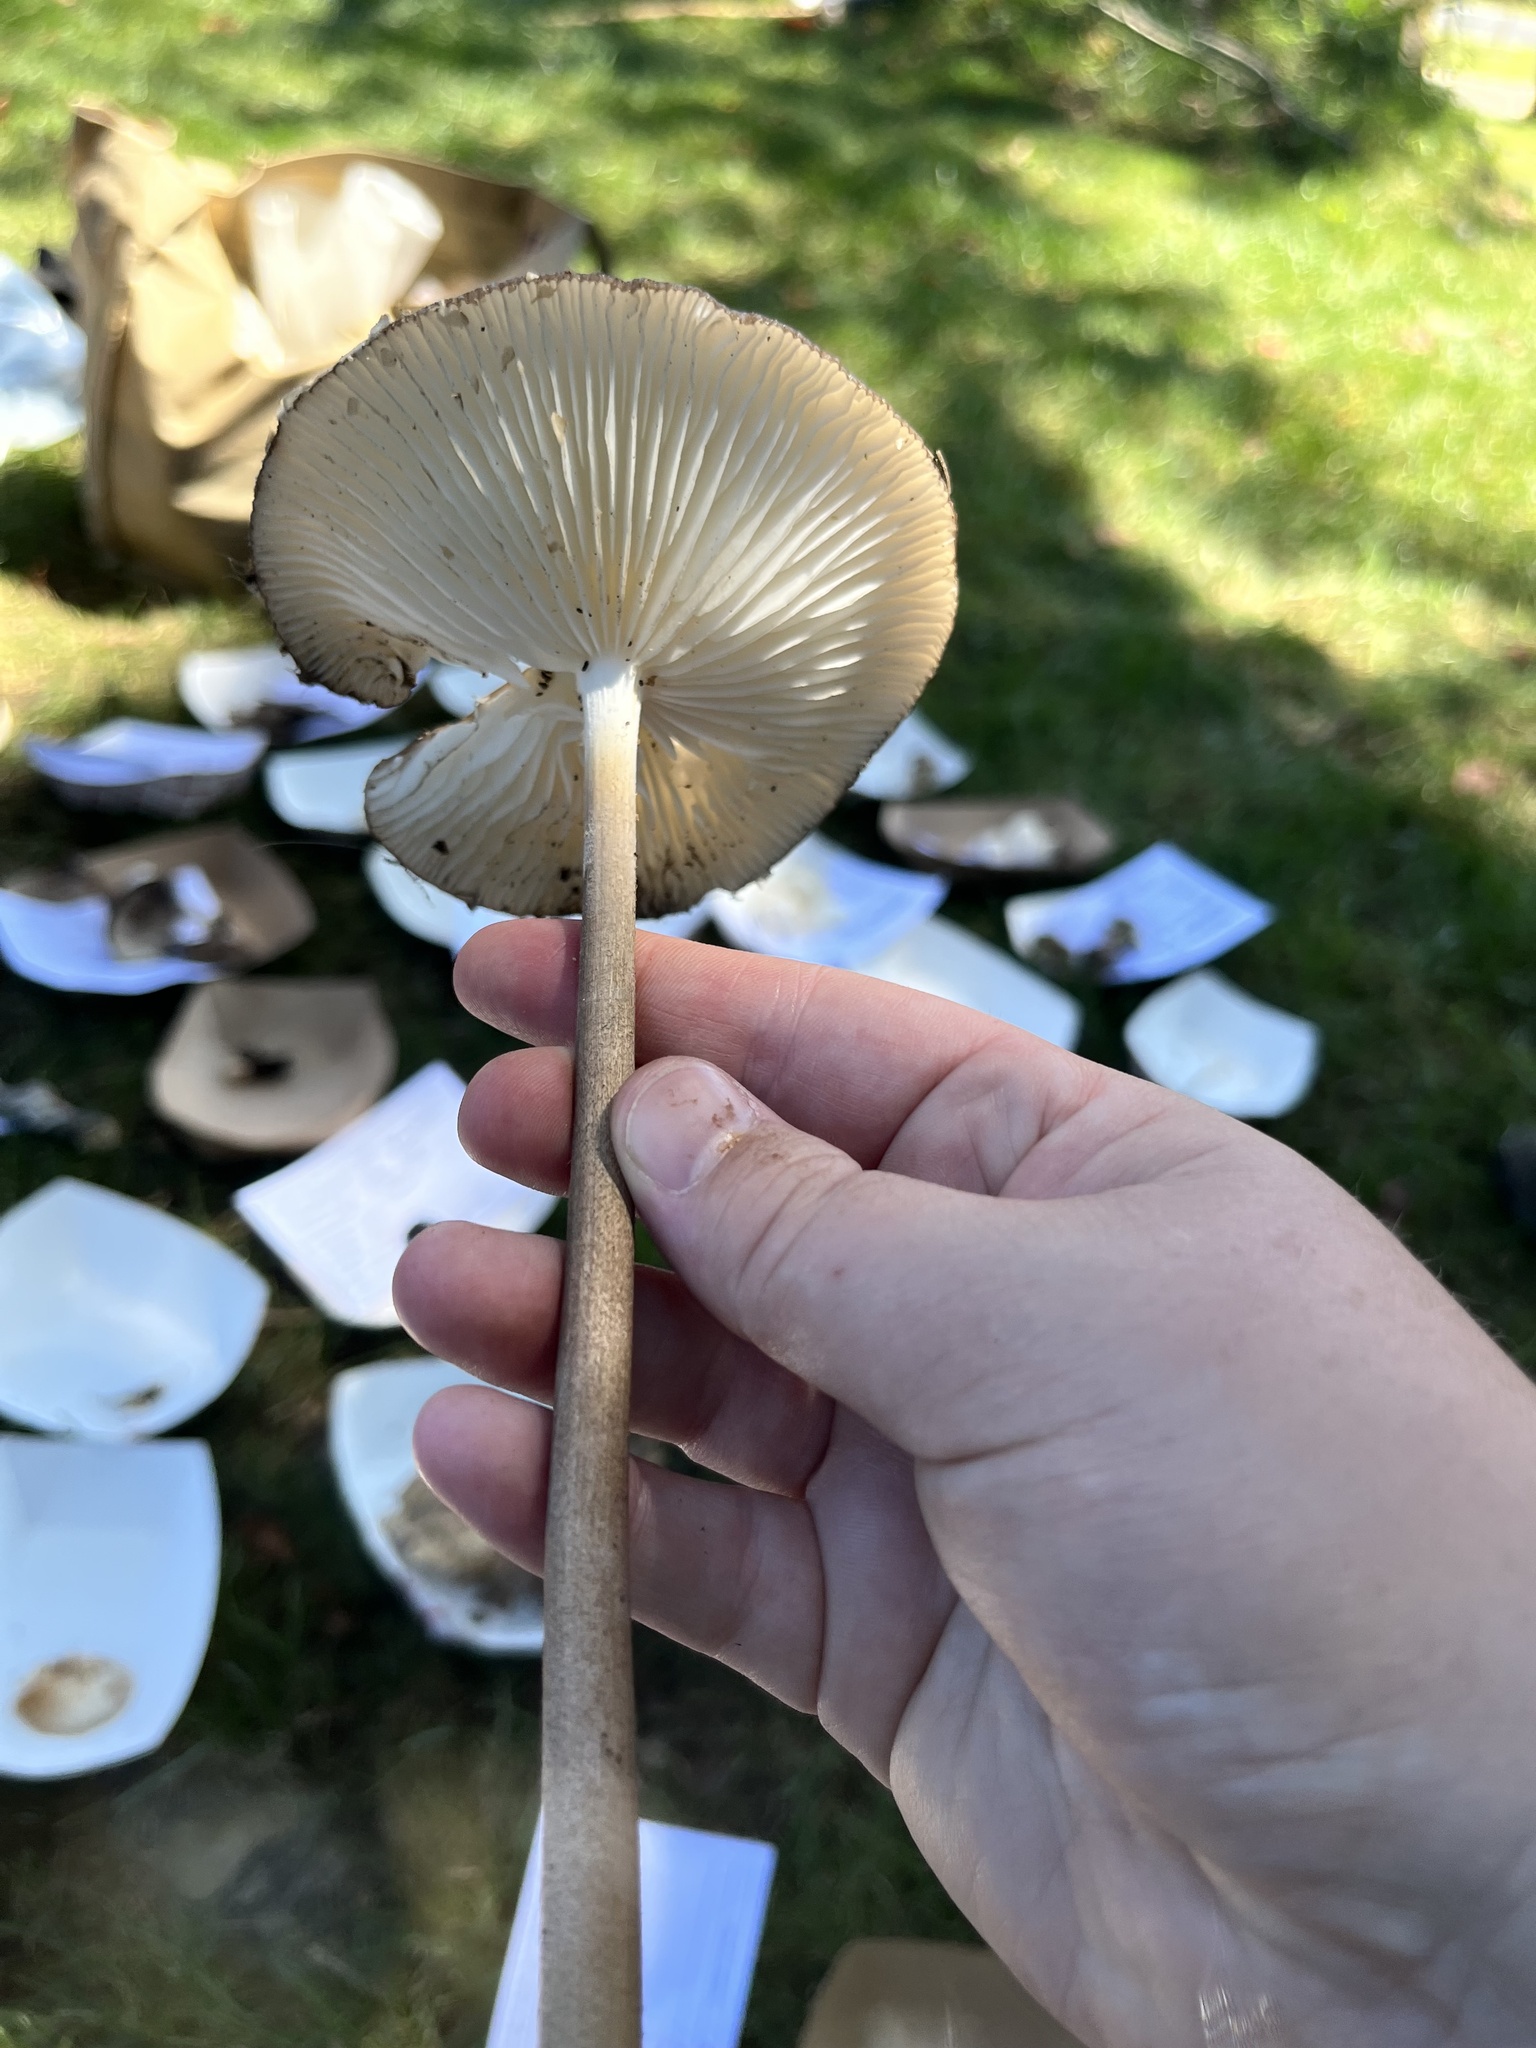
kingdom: Fungi
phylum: Basidiomycota
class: Agaricomycetes
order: Agaricales
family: Physalacriaceae
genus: Hymenopellis
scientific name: Hymenopellis furfuracea
